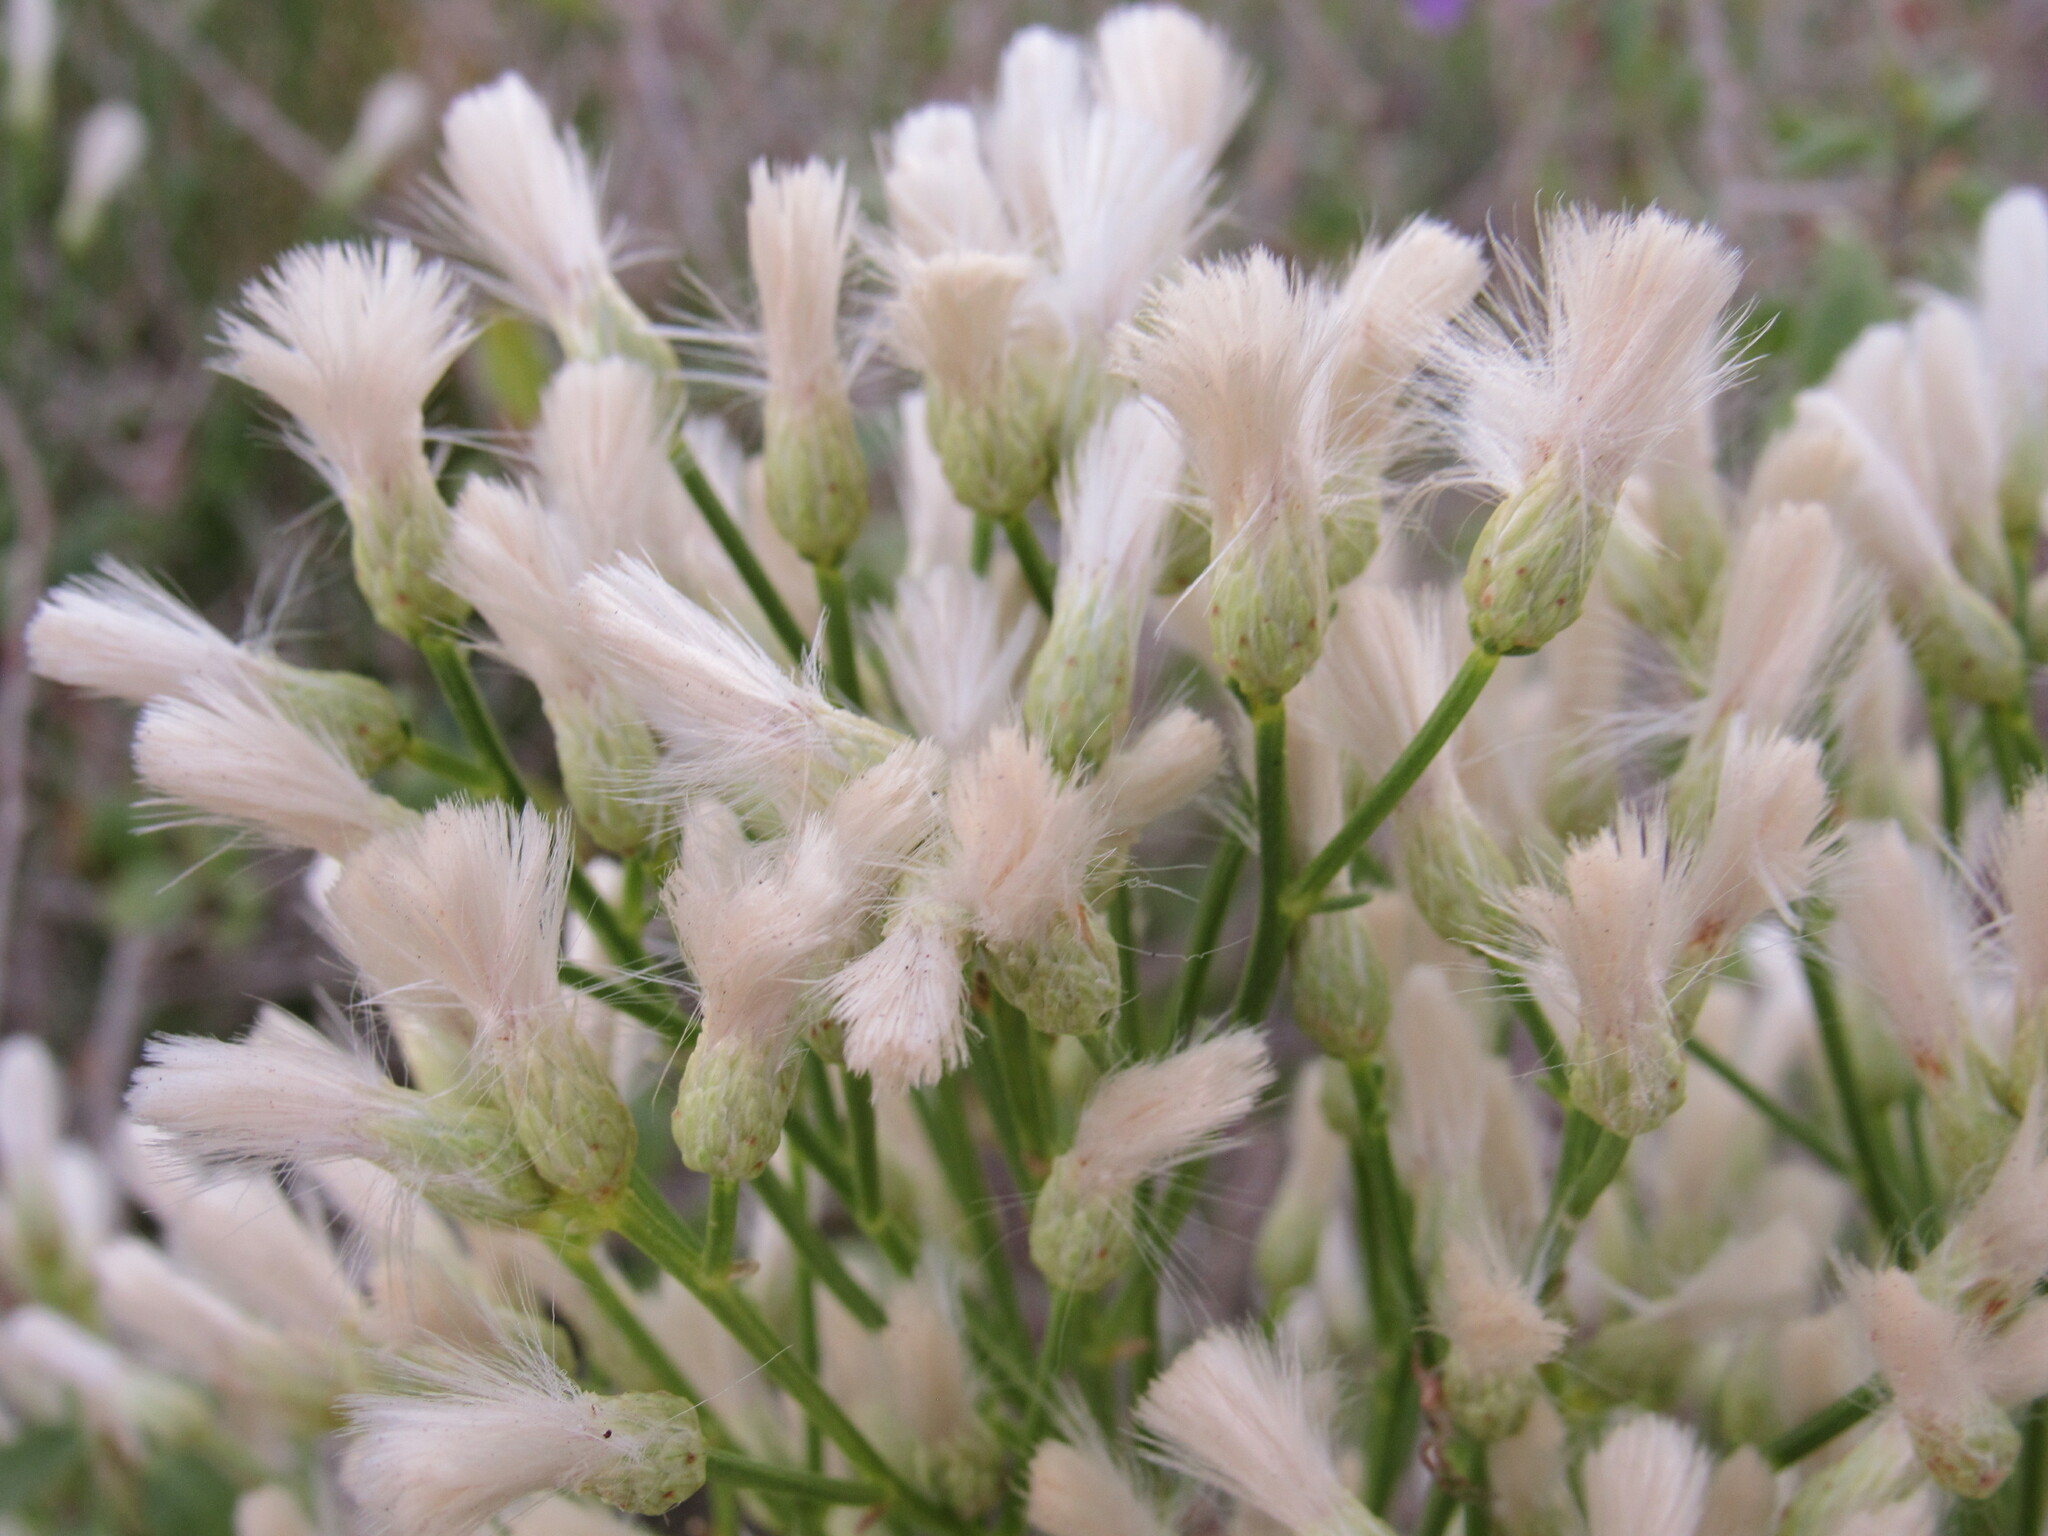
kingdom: Plantae
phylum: Tracheophyta
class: Magnoliopsida
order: Asterales
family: Asteraceae
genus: Baccharis
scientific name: Baccharis sarothroides
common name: Desert-broom
